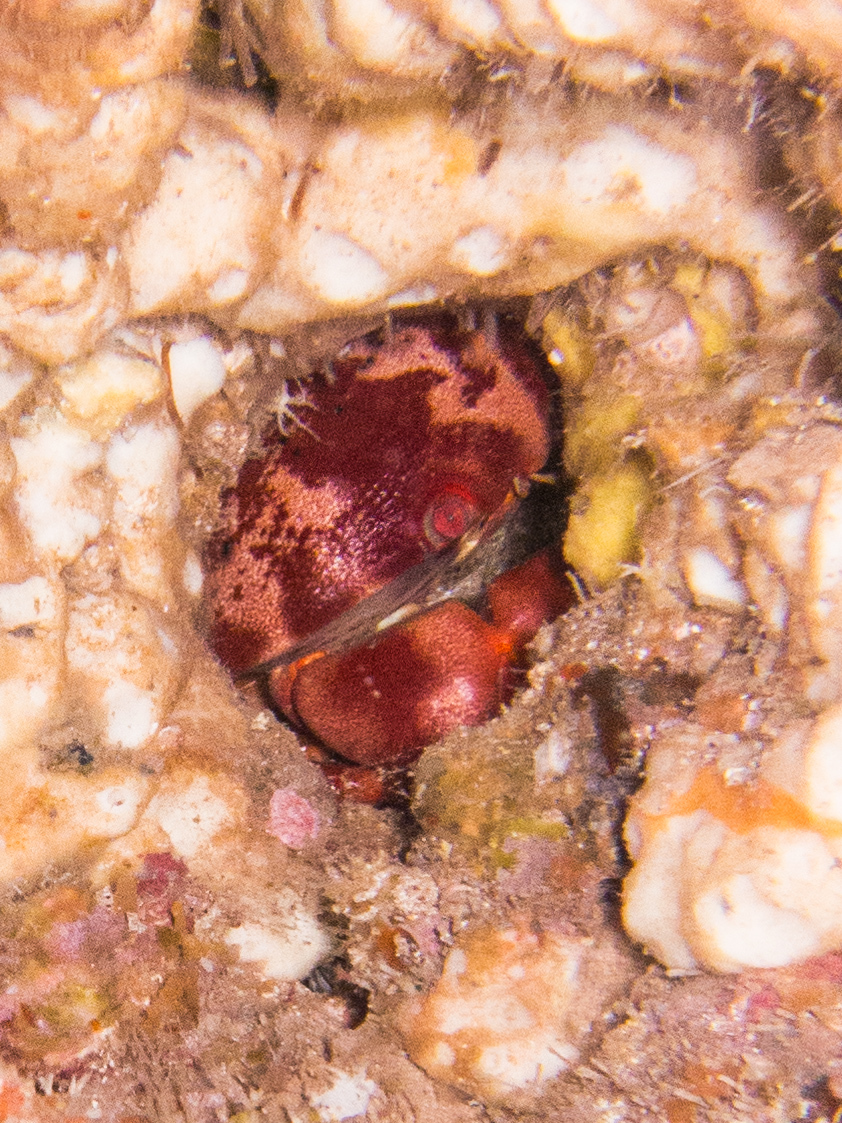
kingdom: Animalia
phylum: Arthropoda
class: Malacostraca
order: Decapoda
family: Carpiliidae
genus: Carpilius
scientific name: Carpilius convexus
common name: Convex reef crab
